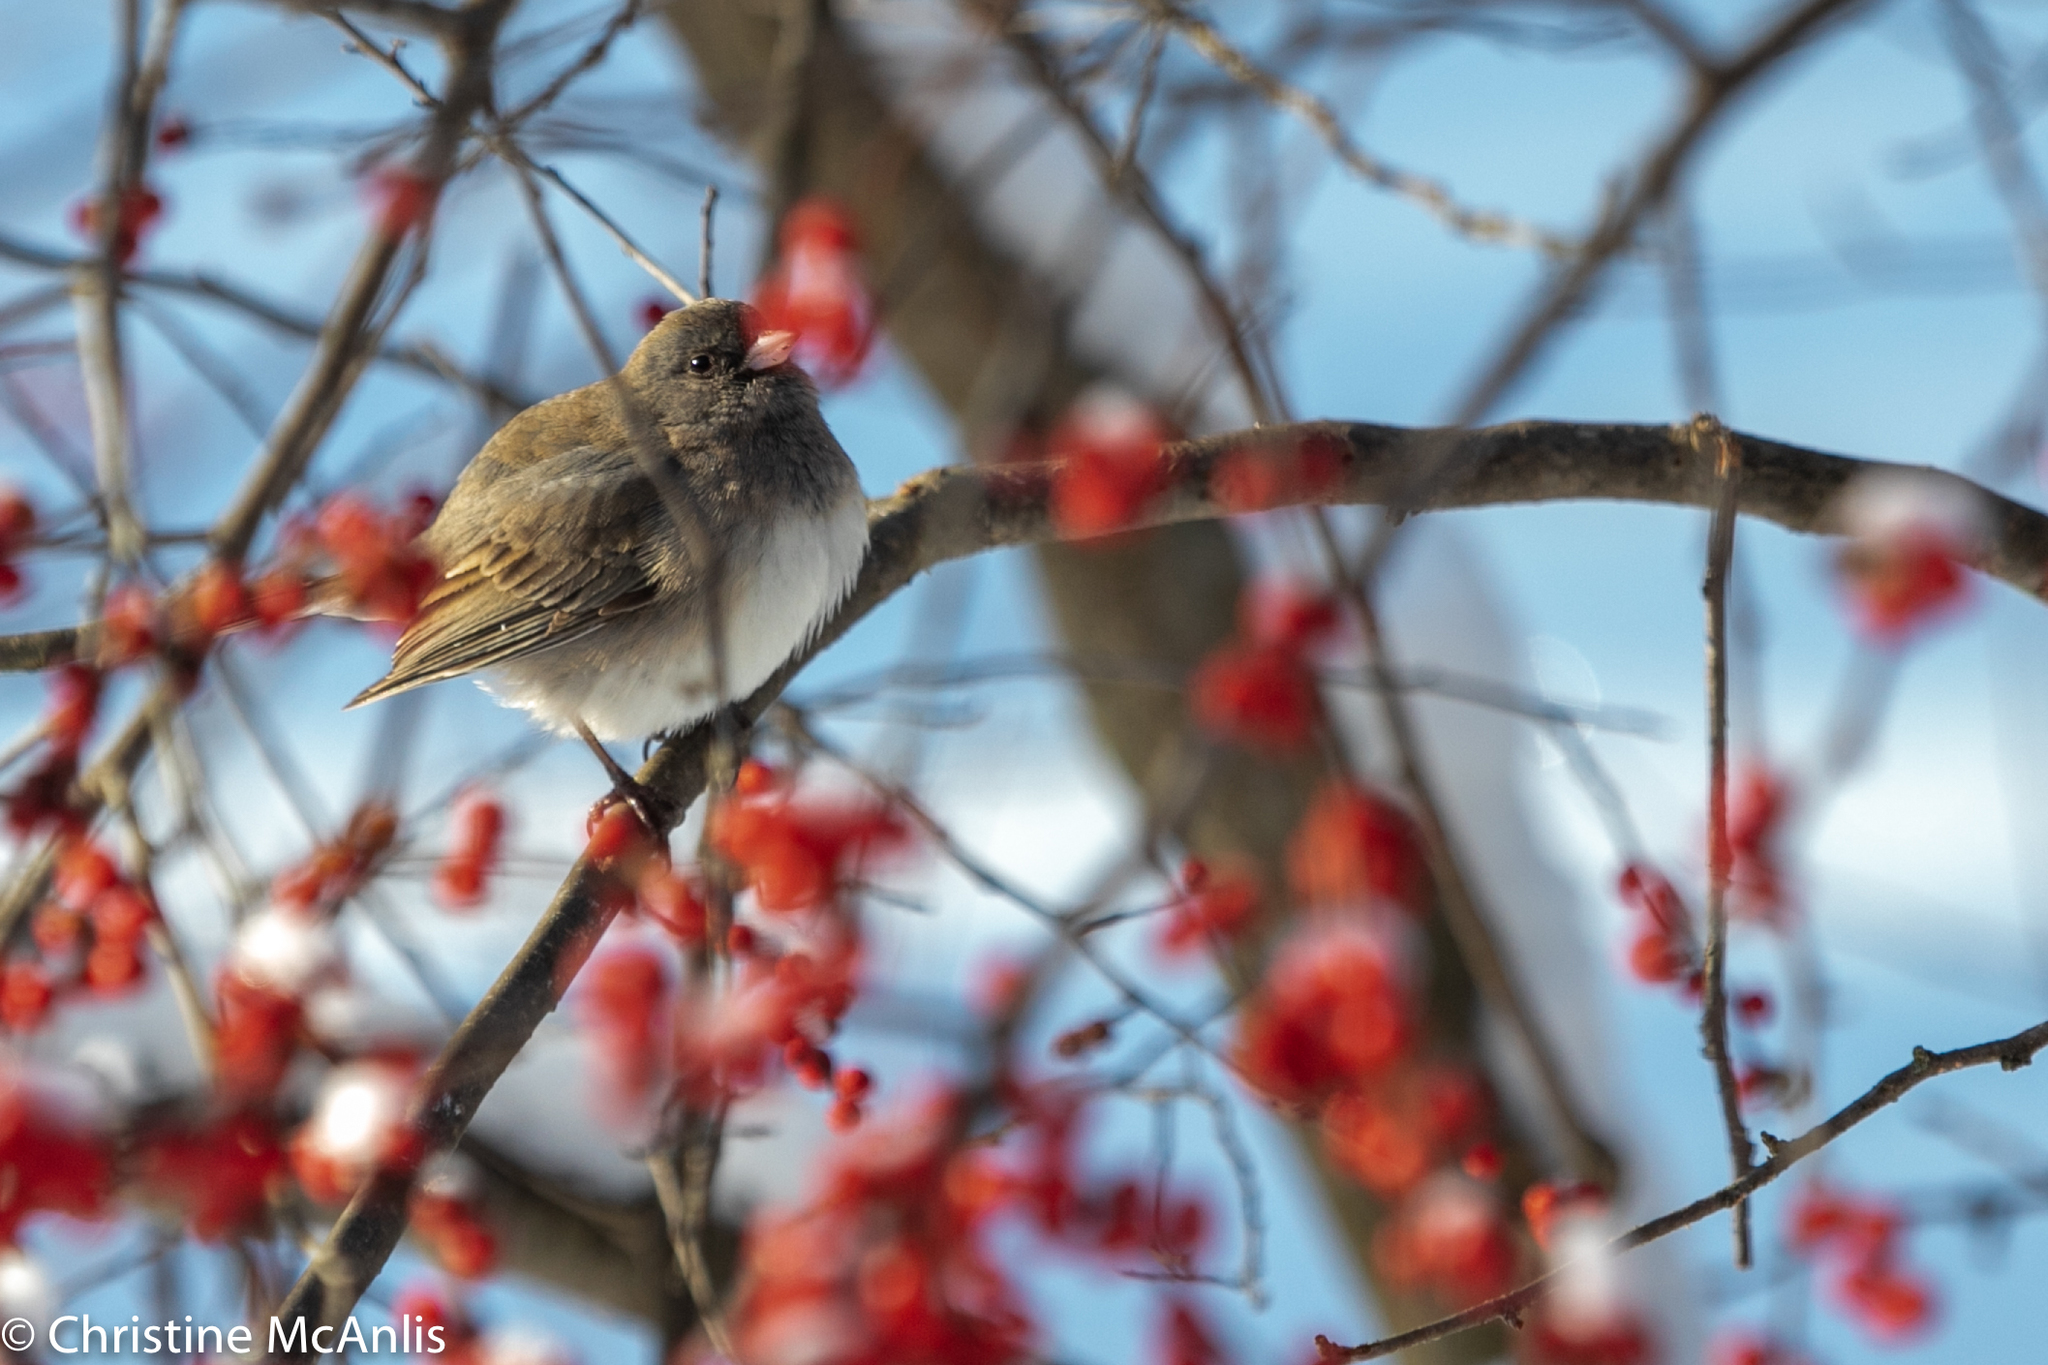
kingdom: Animalia
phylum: Chordata
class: Aves
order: Passeriformes
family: Passerellidae
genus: Junco
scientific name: Junco hyemalis
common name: Dark-eyed junco
